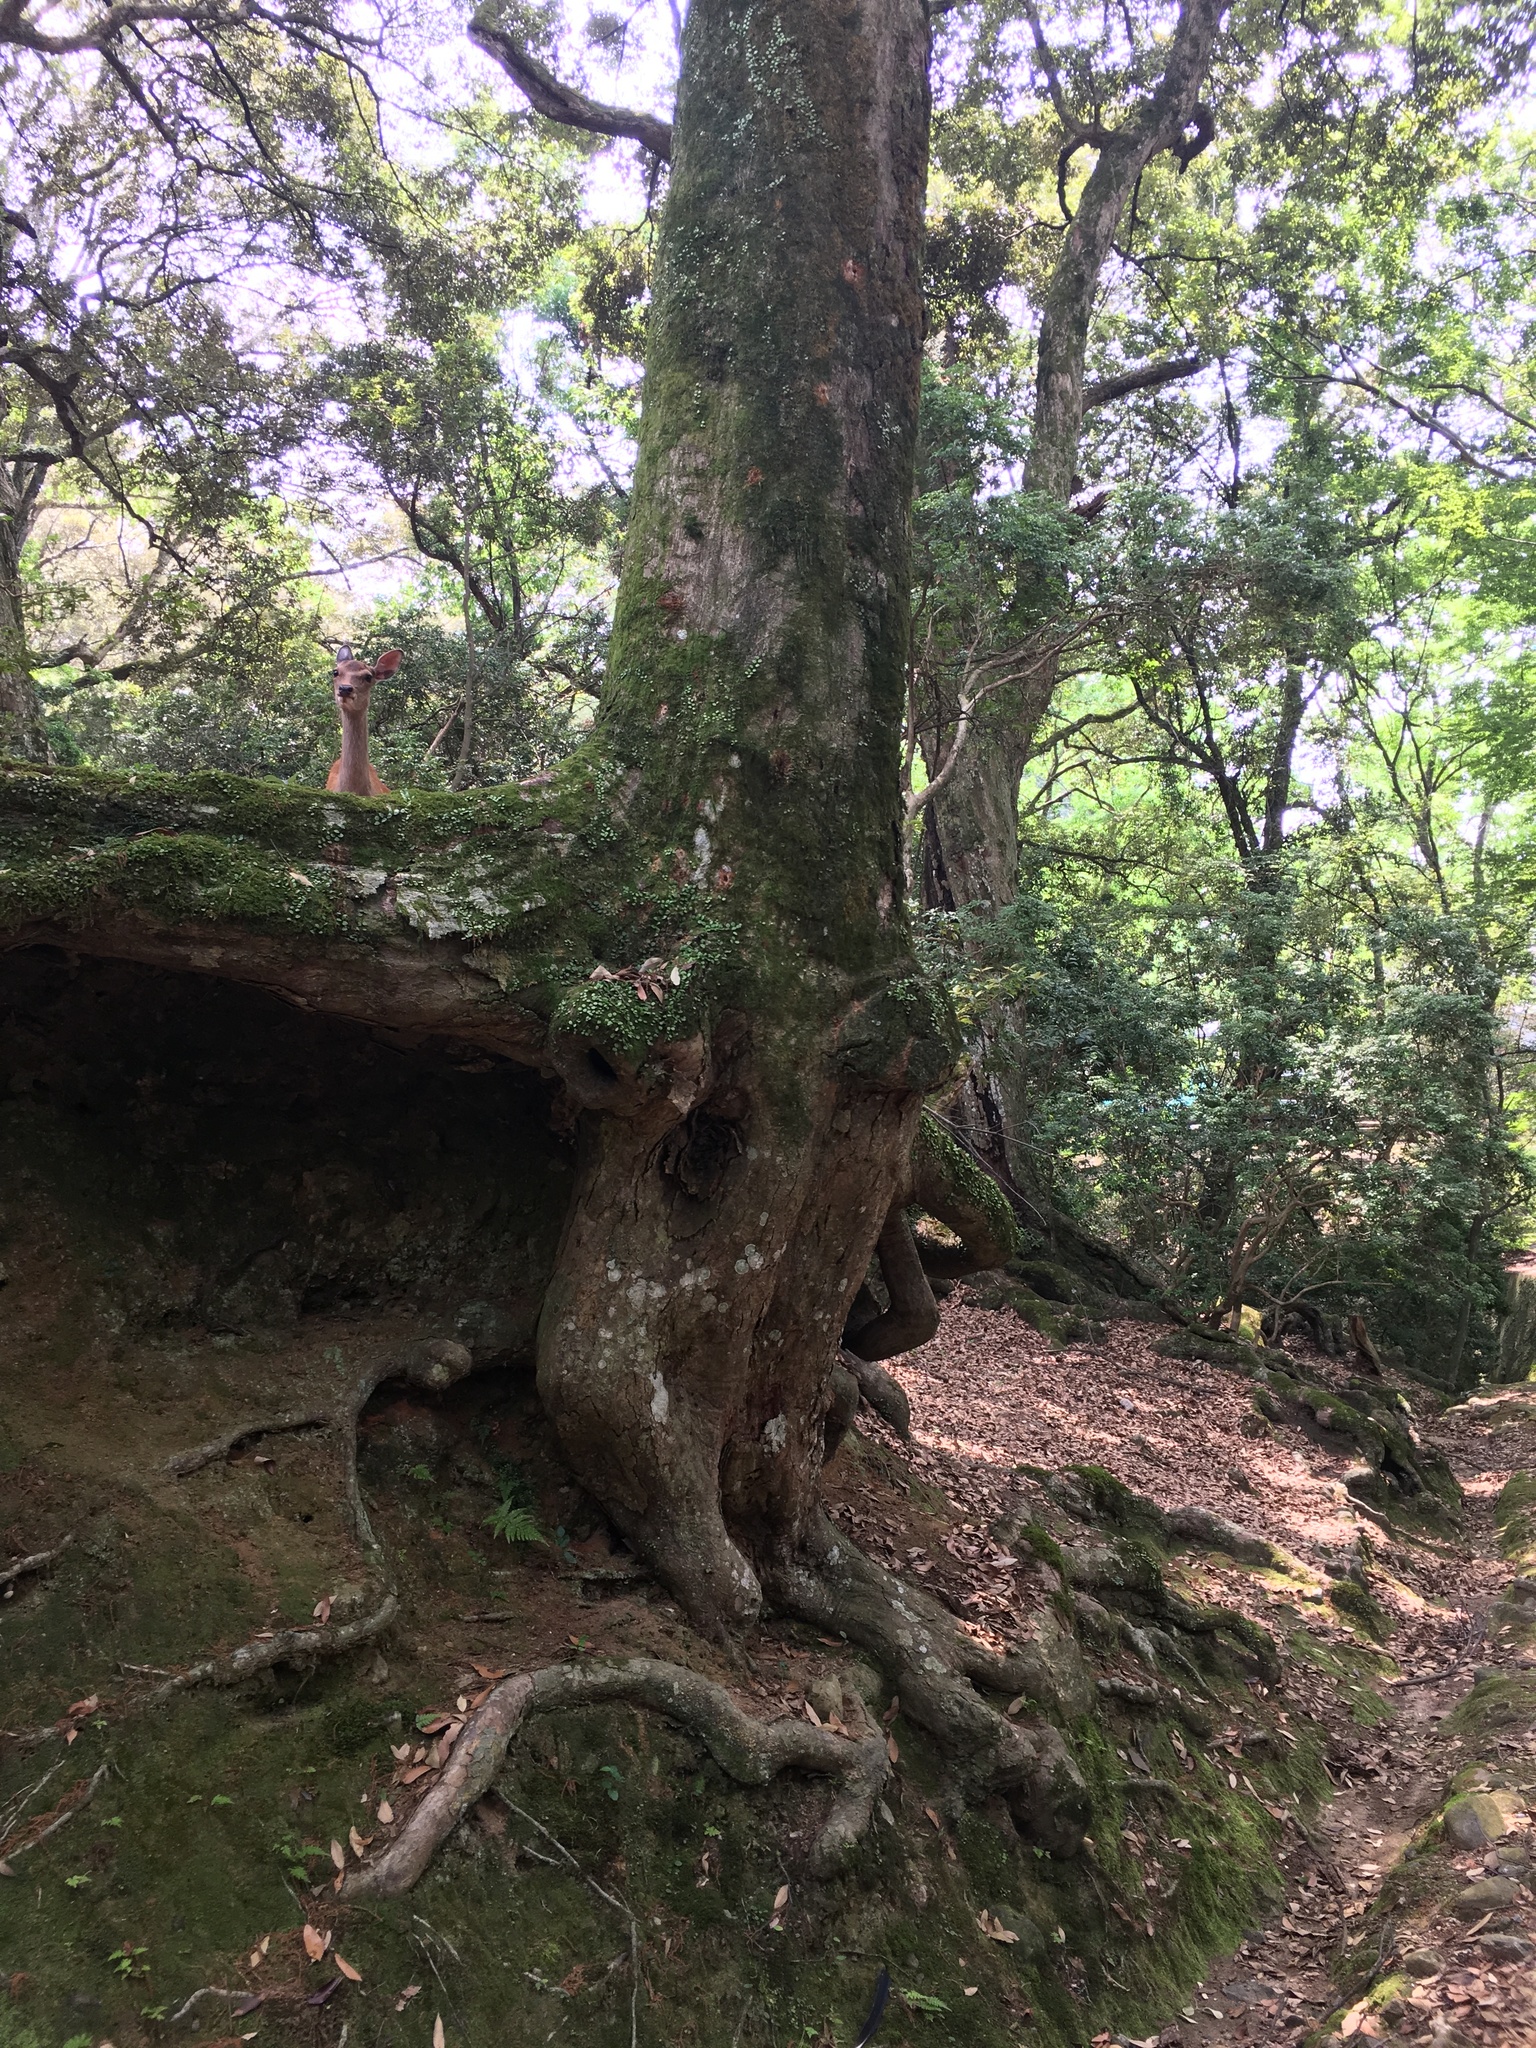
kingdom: Animalia
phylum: Chordata
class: Mammalia
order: Artiodactyla
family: Cervidae
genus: Cervus
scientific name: Cervus nippon
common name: Sika deer
